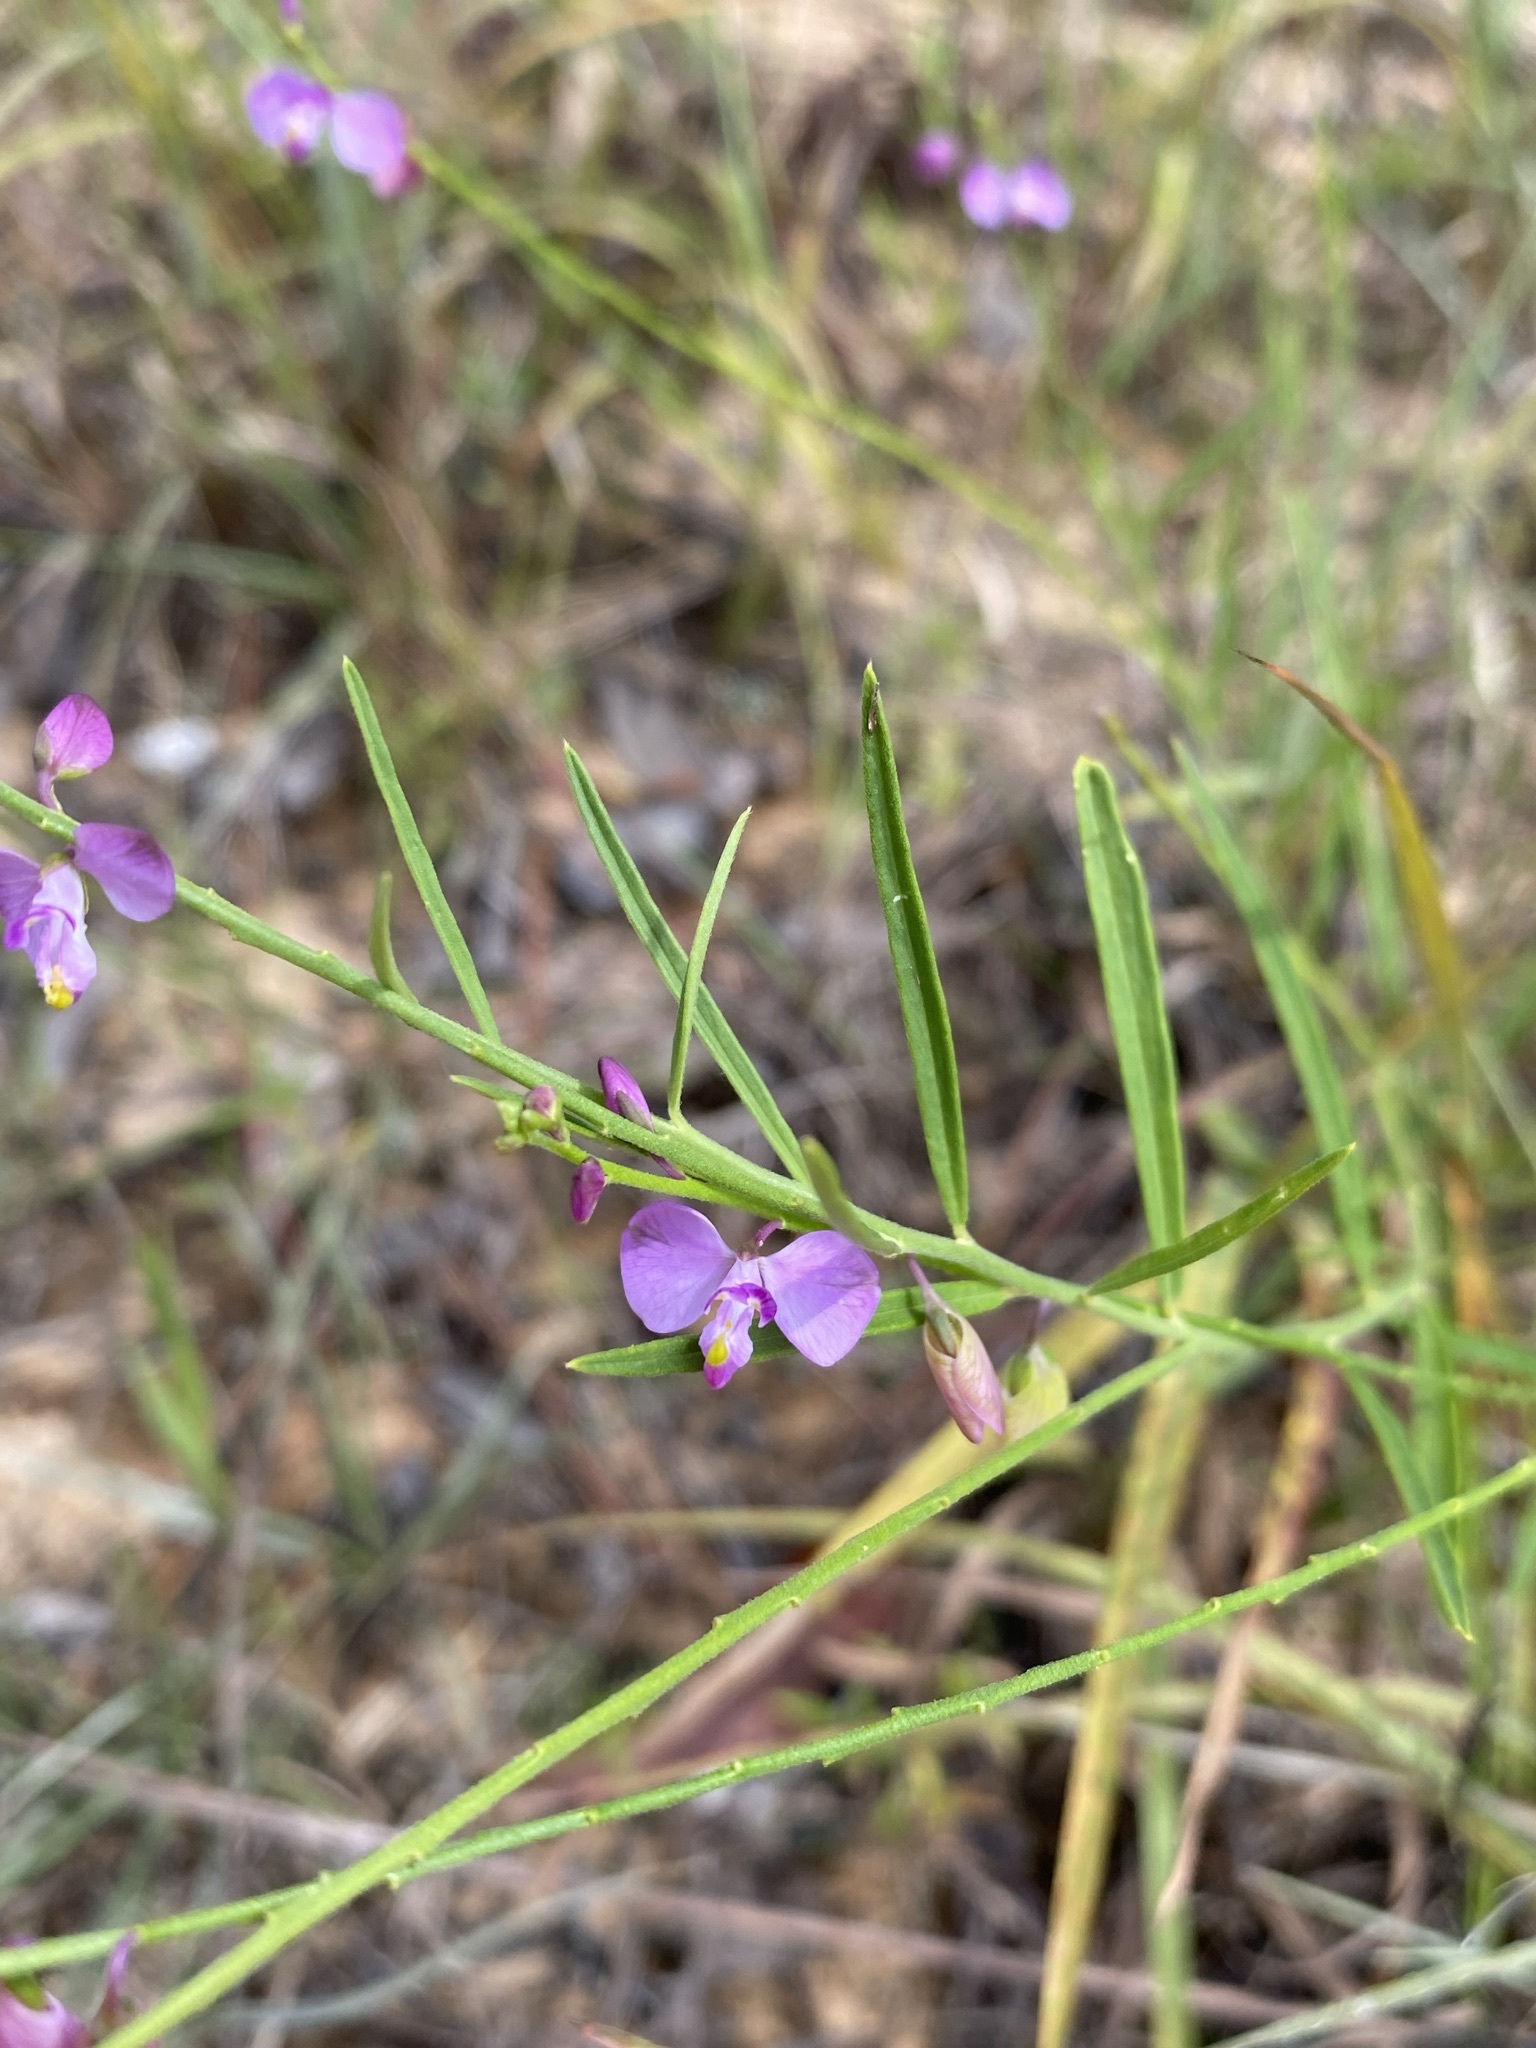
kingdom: Plantae
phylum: Tracheophyta
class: Magnoliopsida
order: Fabales
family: Polygalaceae
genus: Asemeia
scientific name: Asemeia grandiflora
